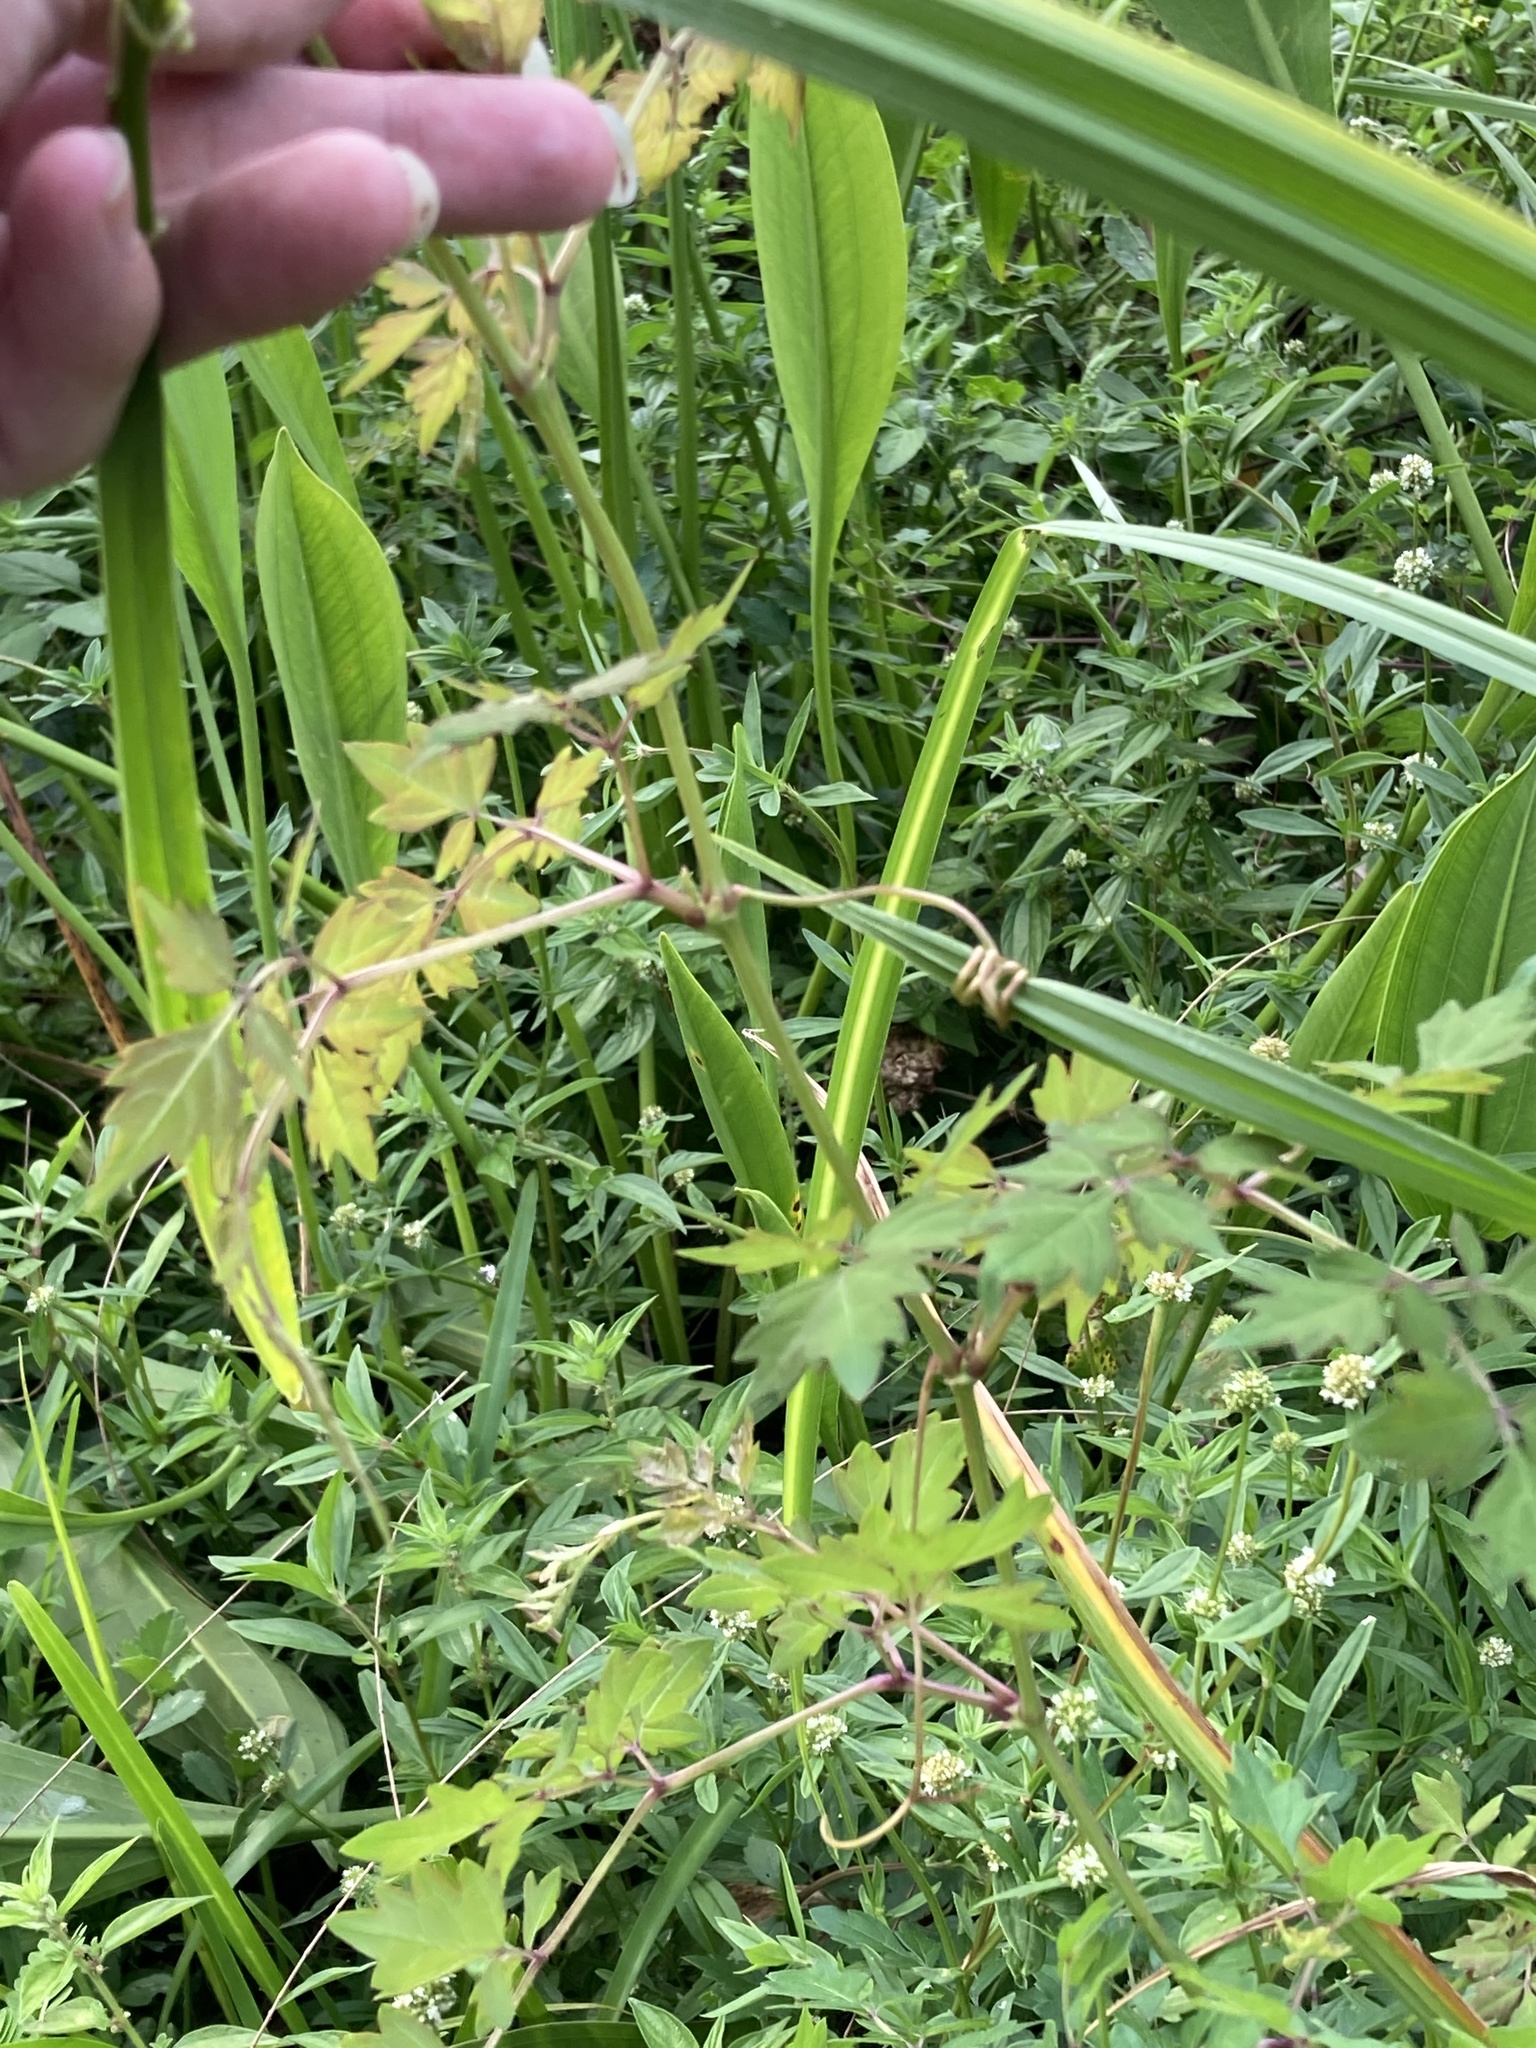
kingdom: Plantae
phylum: Tracheophyta
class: Magnoliopsida
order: Vitales
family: Vitaceae
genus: Nekemias
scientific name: Nekemias arborea
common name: Peppervine
